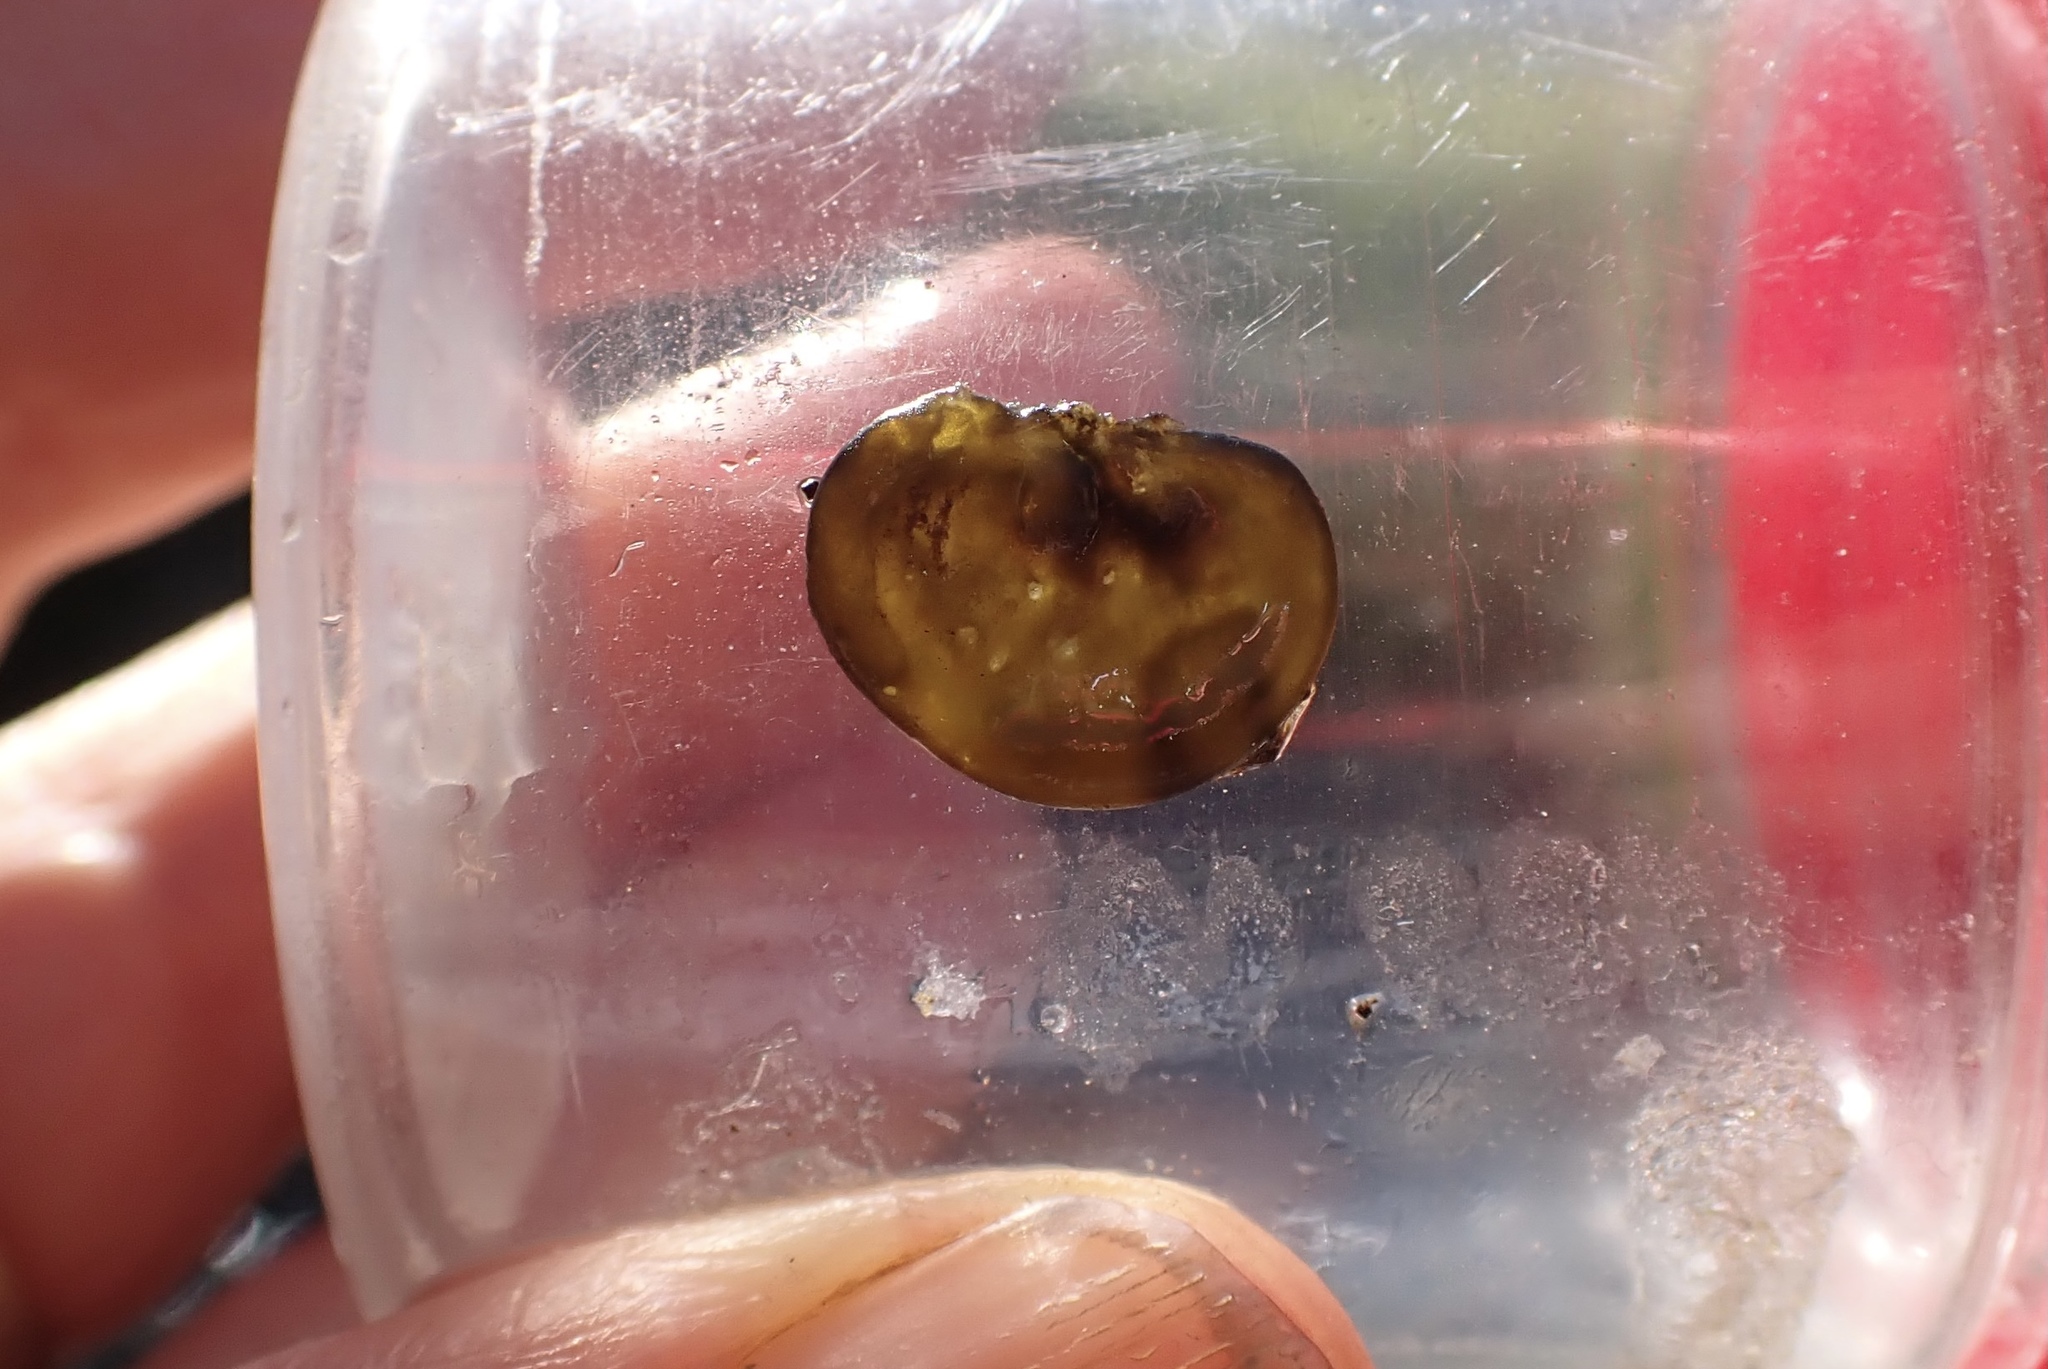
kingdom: Bacteria
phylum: Cyanobacteria
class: Cyanobacteriia
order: Cyanobacteriales
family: Nostocaceae
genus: Nostoc
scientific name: Nostoc parmelioides
